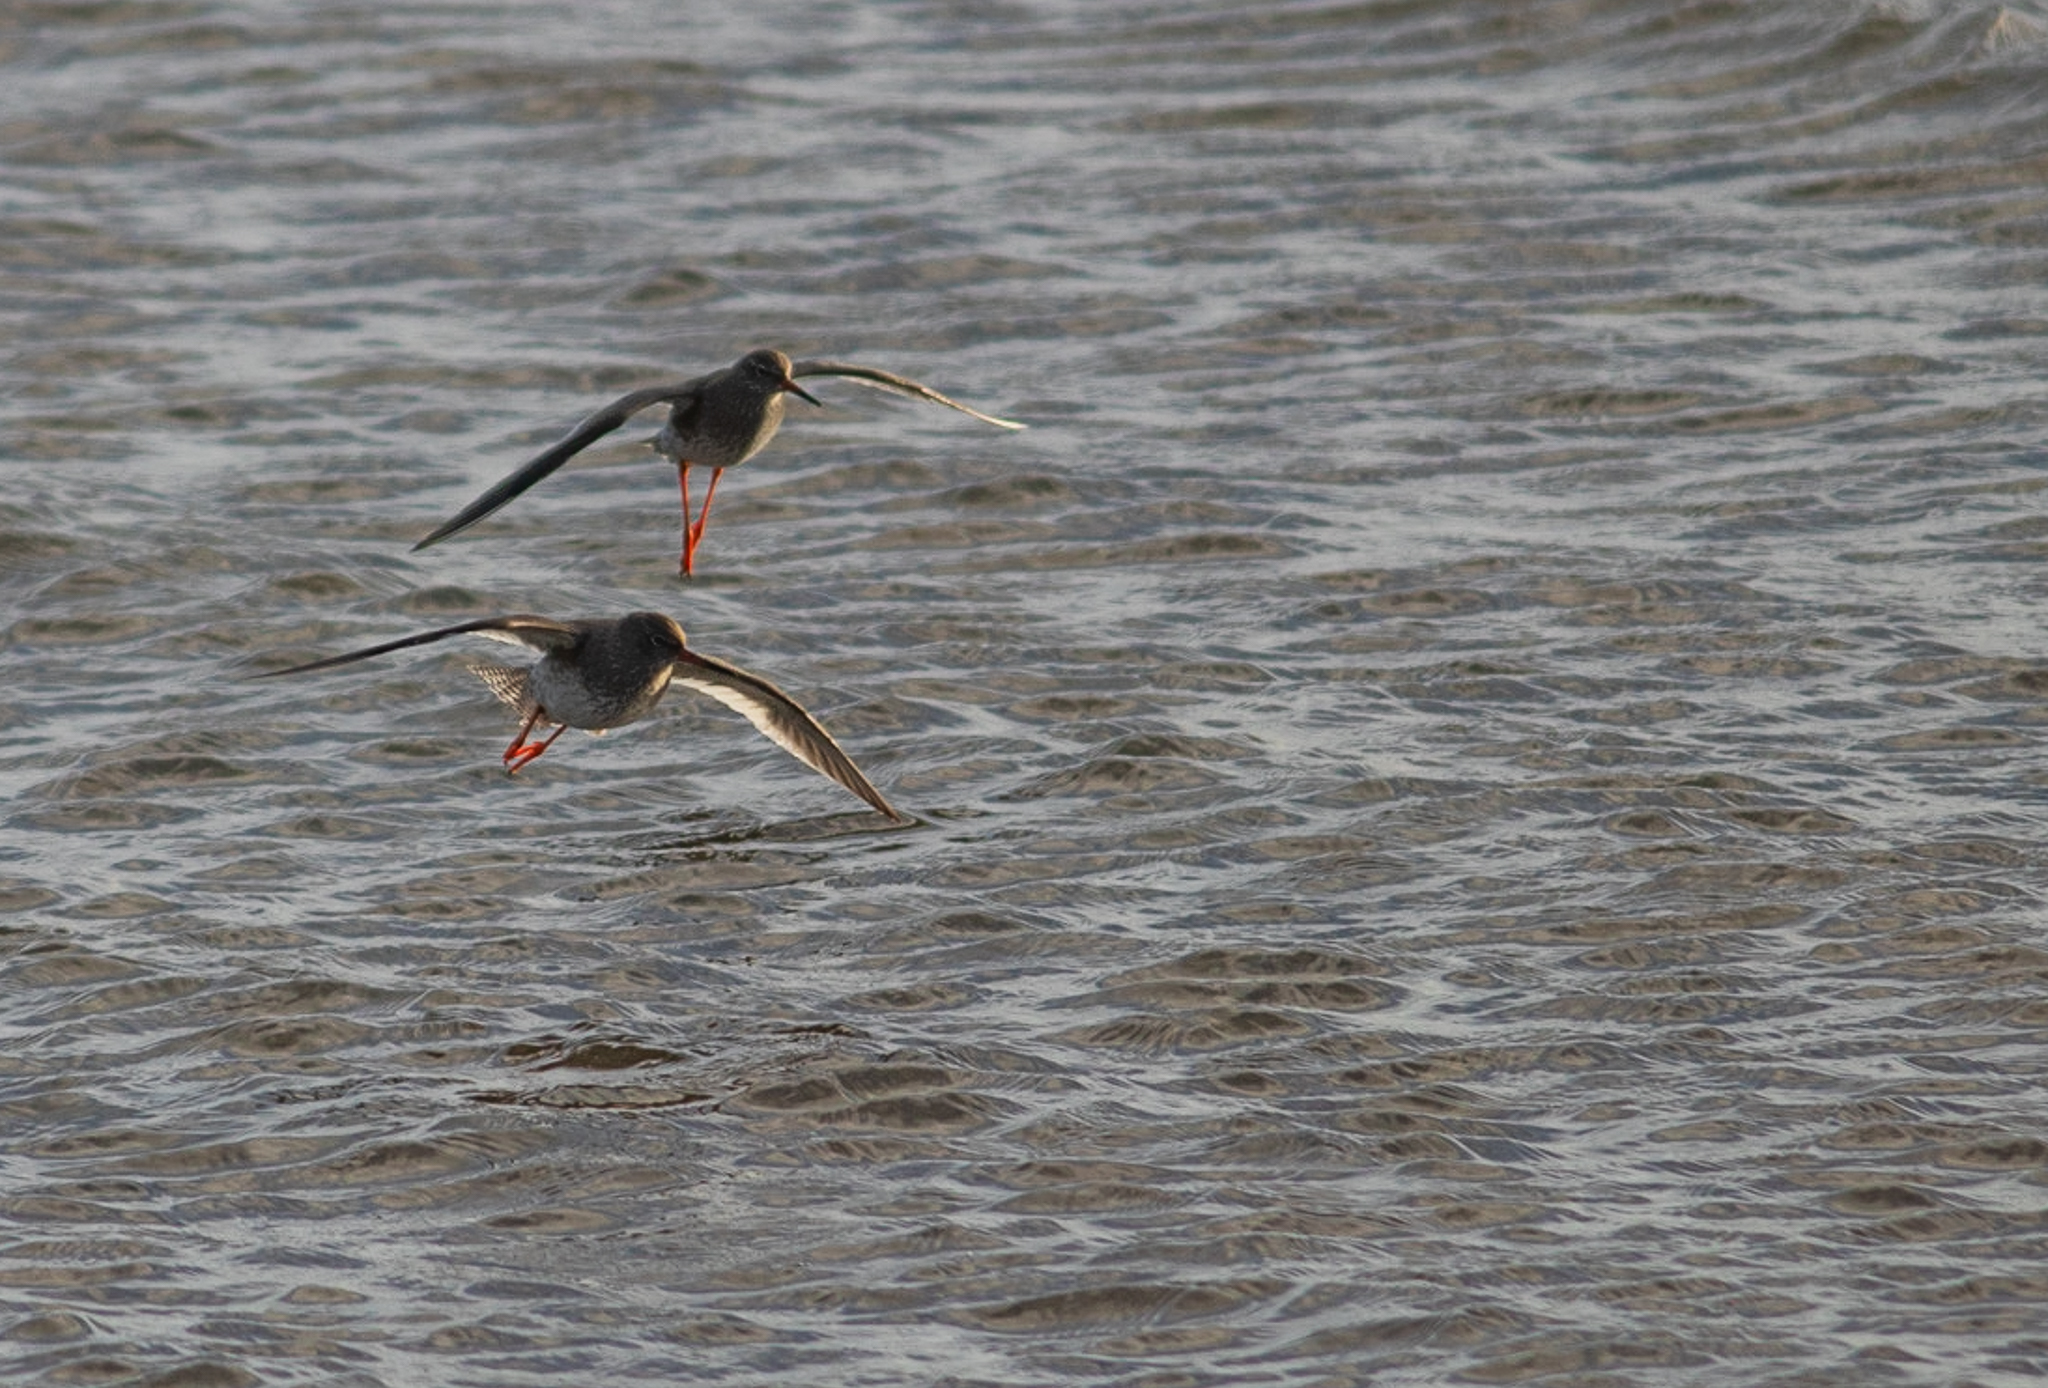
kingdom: Animalia
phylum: Chordata
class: Aves
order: Charadriiformes
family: Scolopacidae
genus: Tringa
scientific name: Tringa totanus
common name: Common redshank
